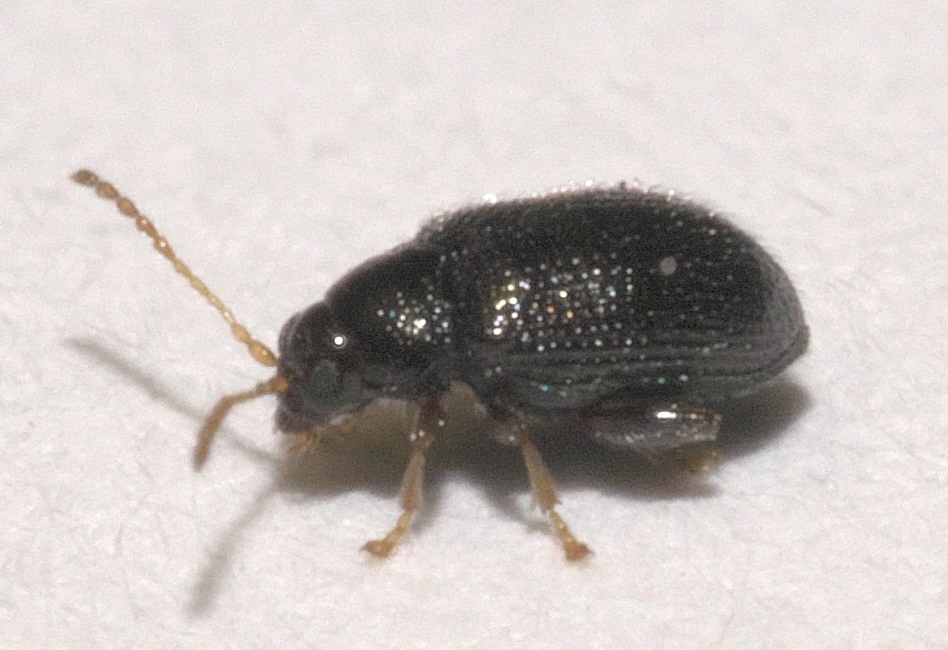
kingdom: Animalia
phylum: Arthropoda
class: Insecta
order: Coleoptera
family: Chrysomelidae
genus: Epitrix
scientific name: Epitrix cucumeris
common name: Potato flea beetle
